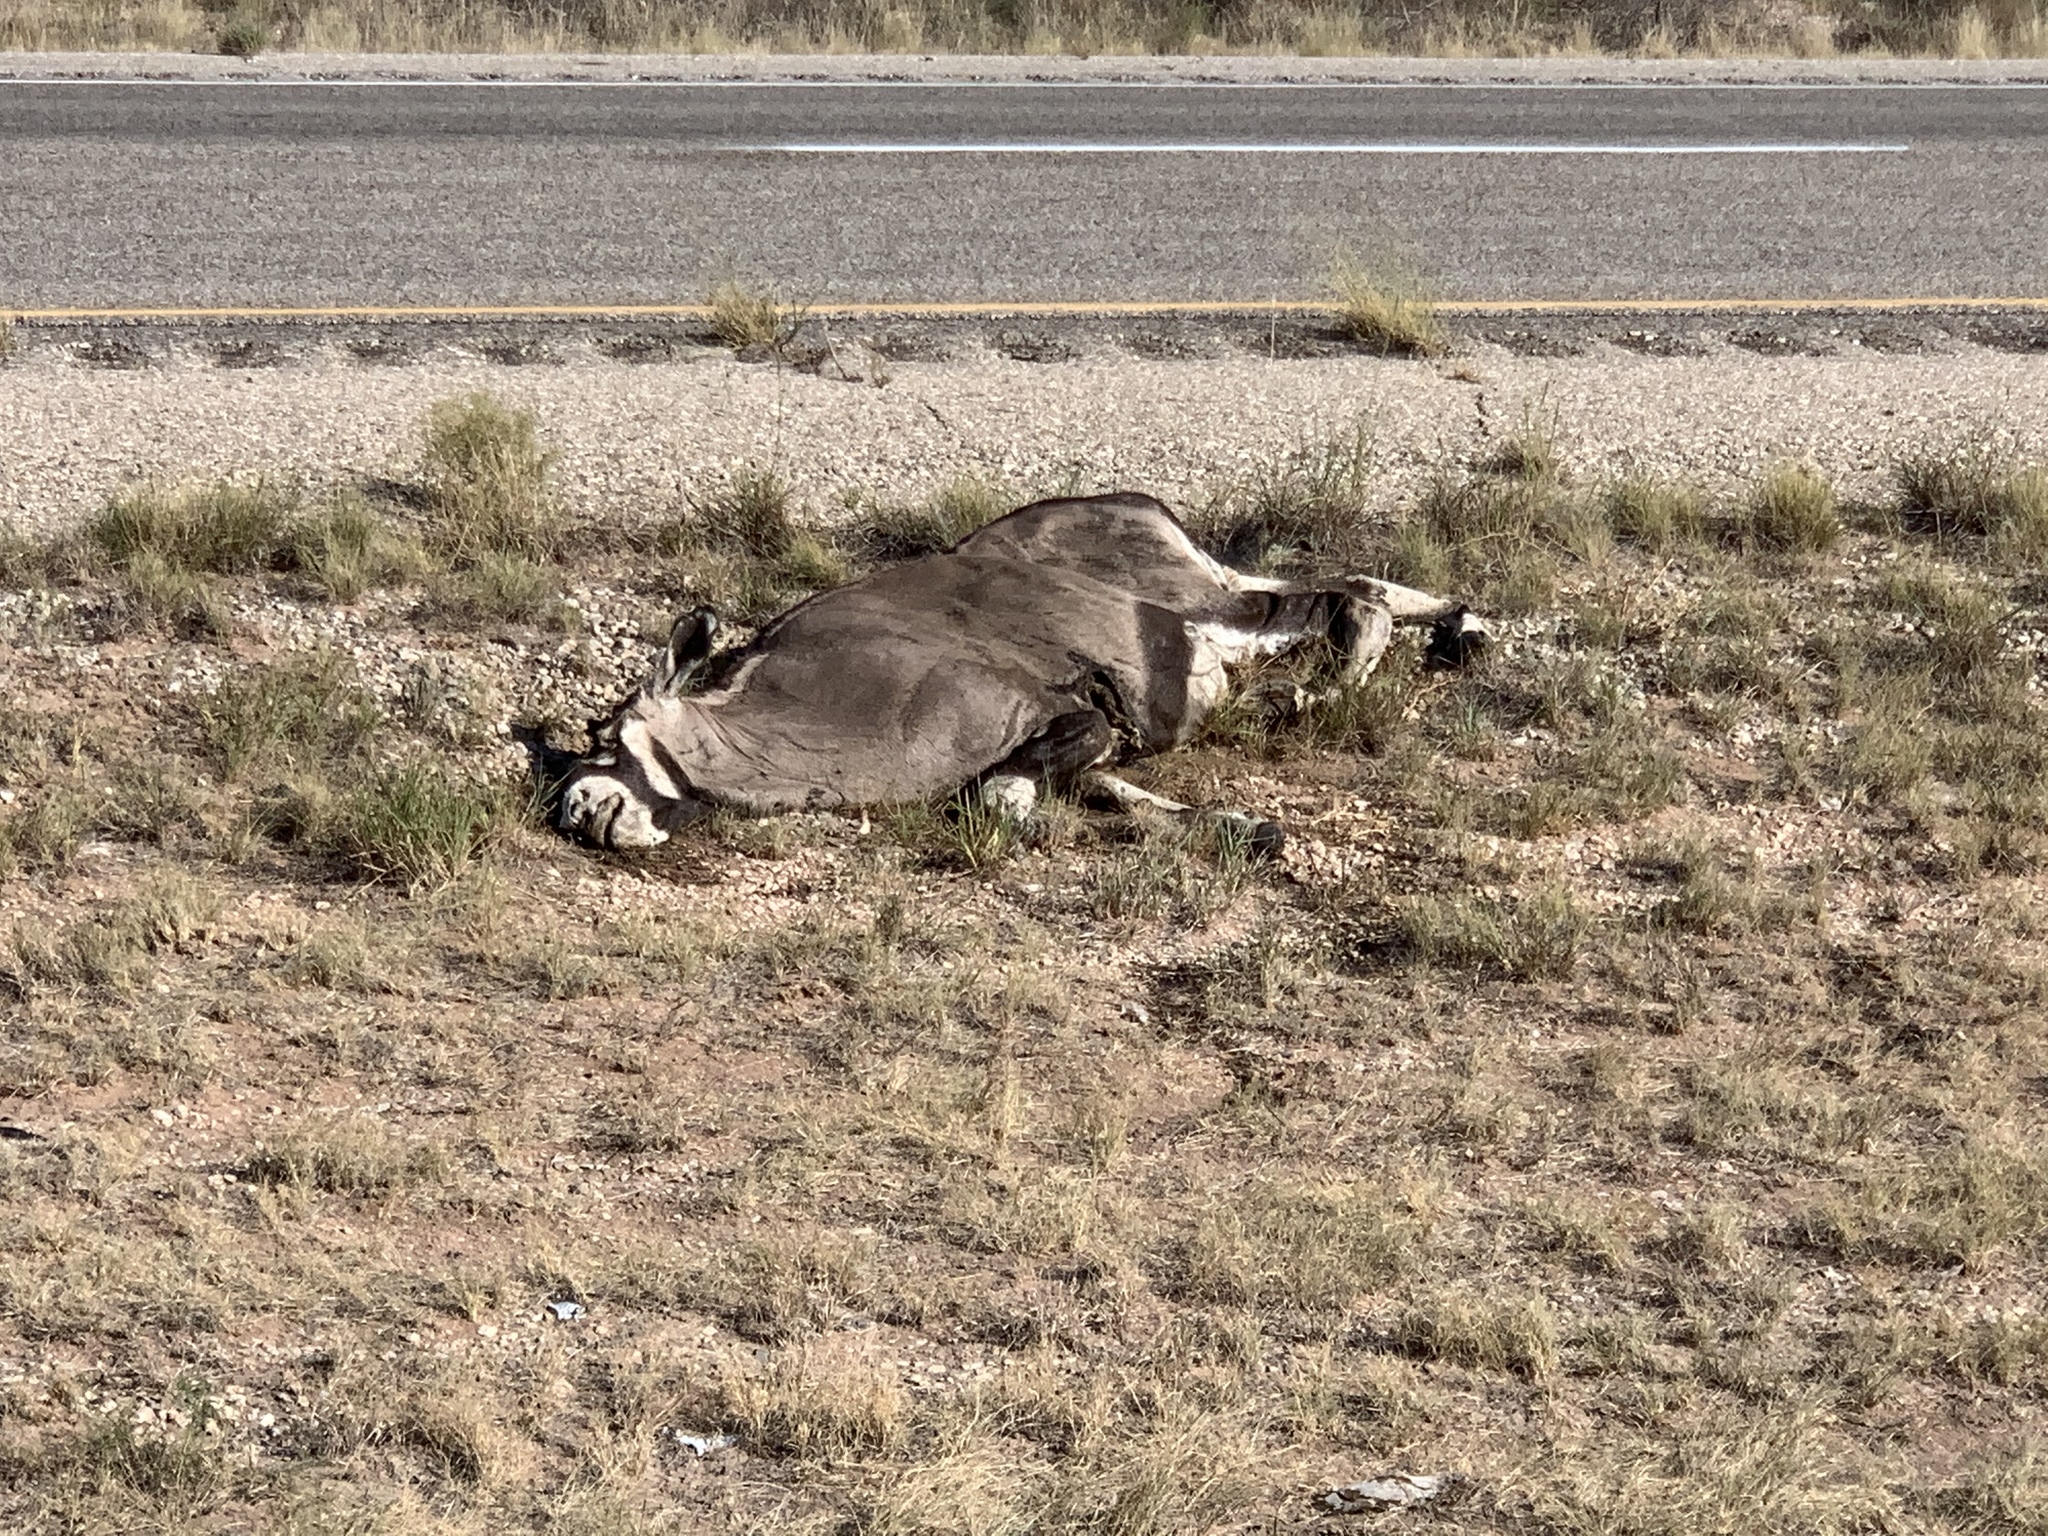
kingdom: Animalia
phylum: Chordata
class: Mammalia
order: Artiodactyla
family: Bovidae
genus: Oryx
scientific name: Oryx gazella
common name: Gemsbok
